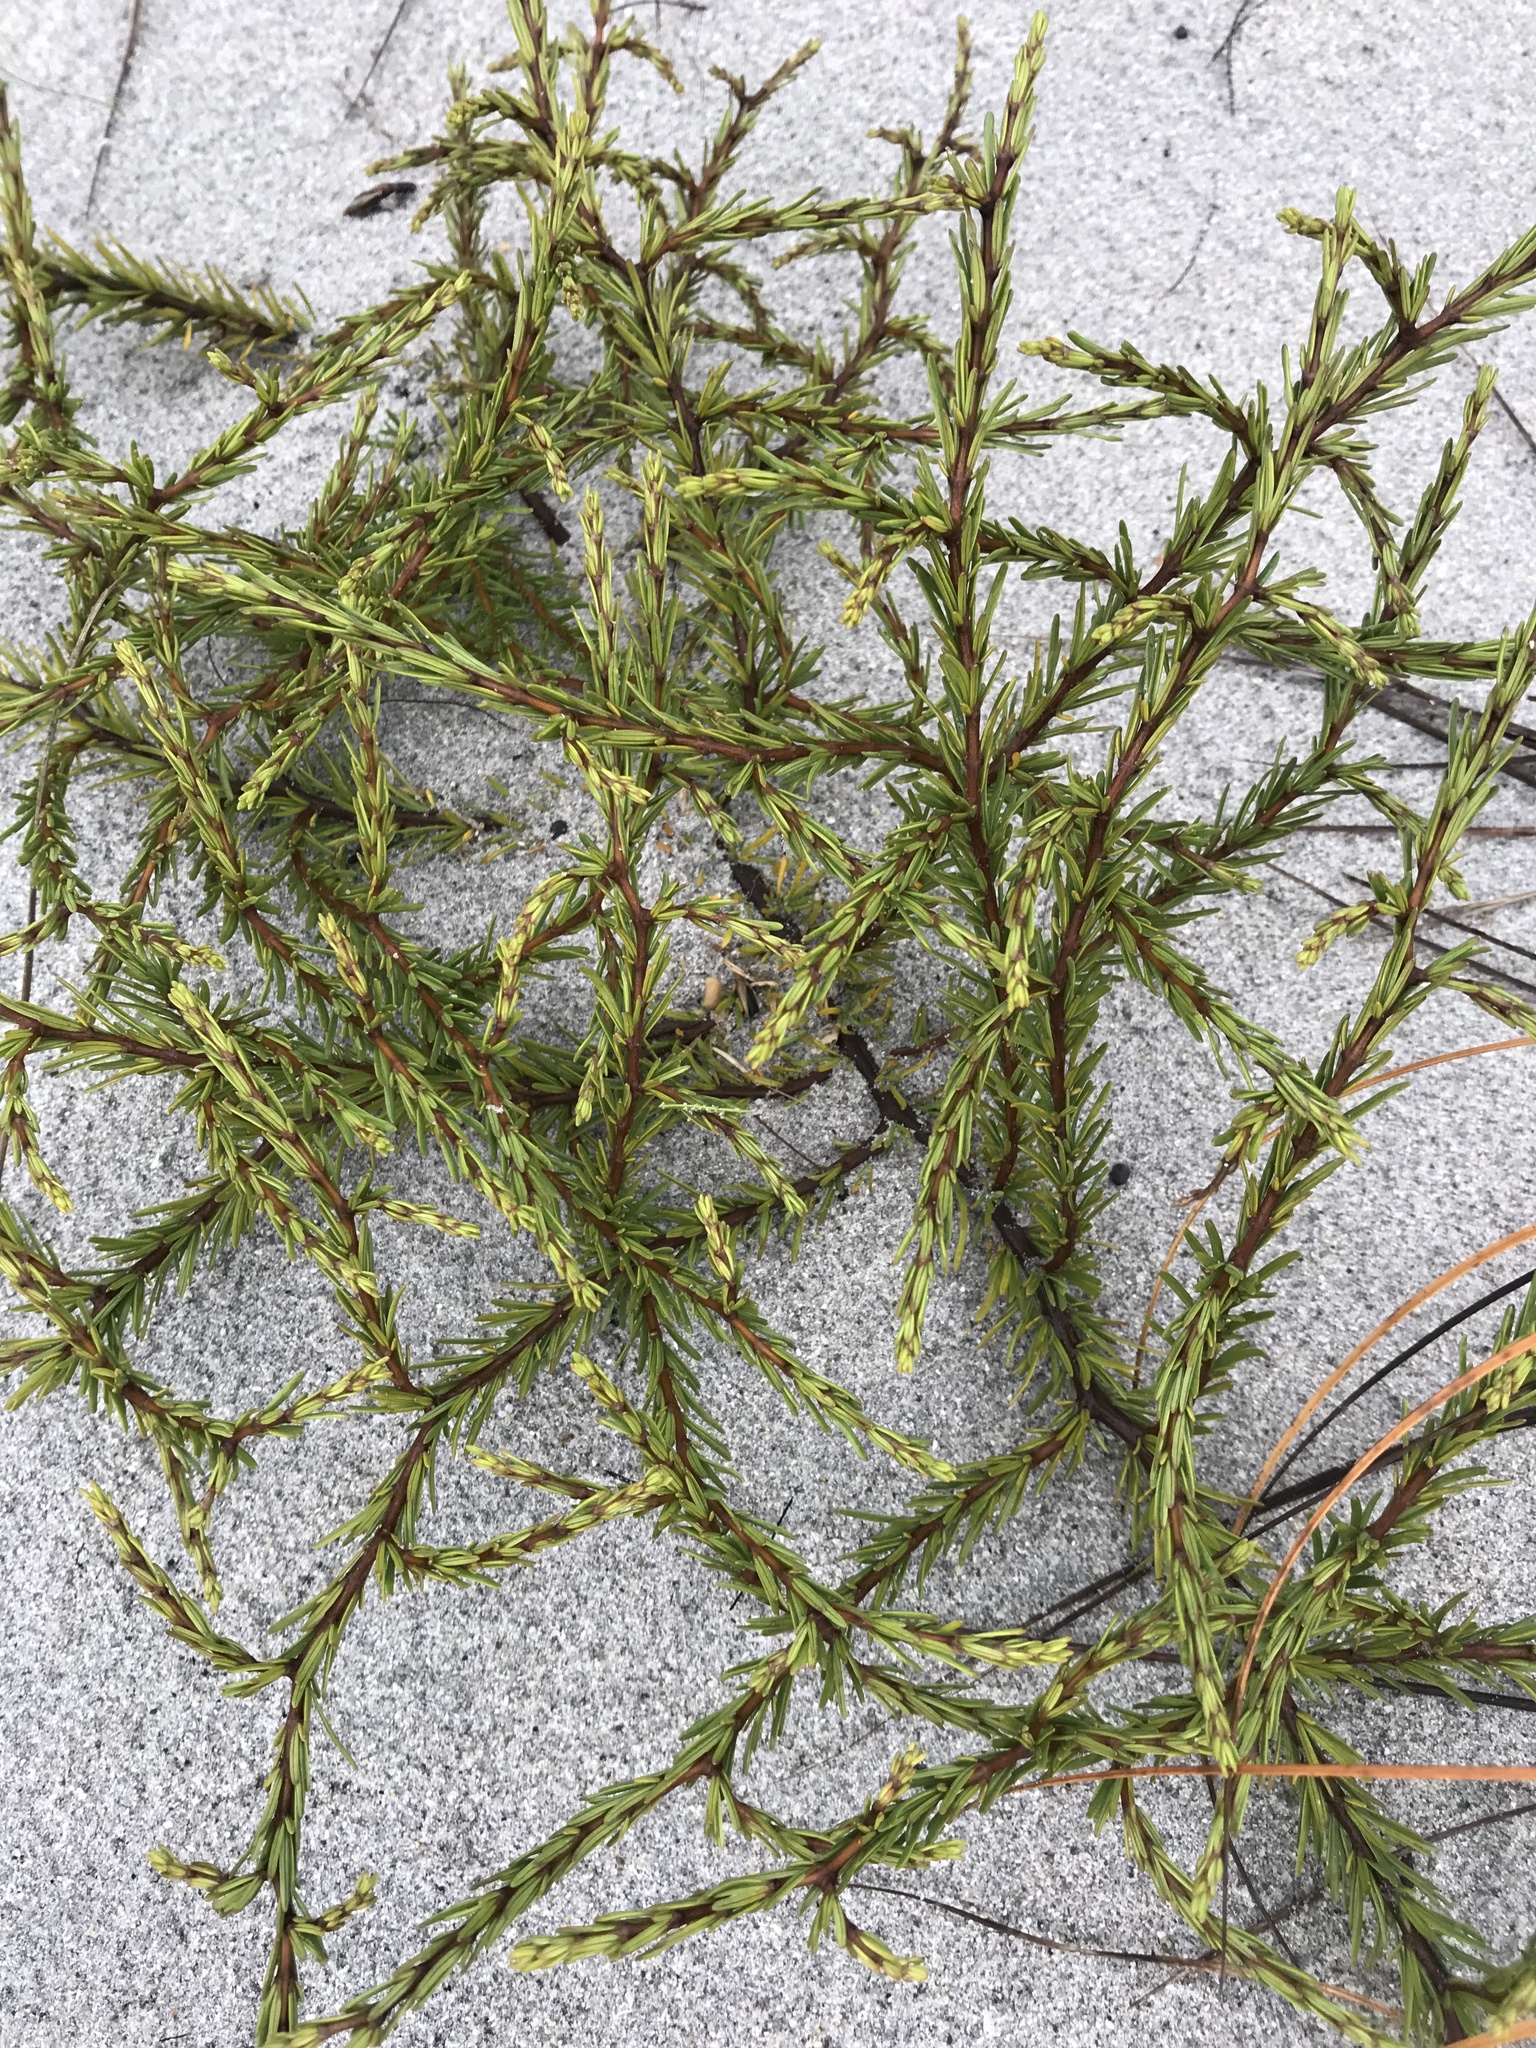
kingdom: Plantae
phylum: Tracheophyta
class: Magnoliopsida
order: Gentianales
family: Rubiaceae
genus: Coprosma
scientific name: Coprosma acerosa
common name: Sand coprosma
